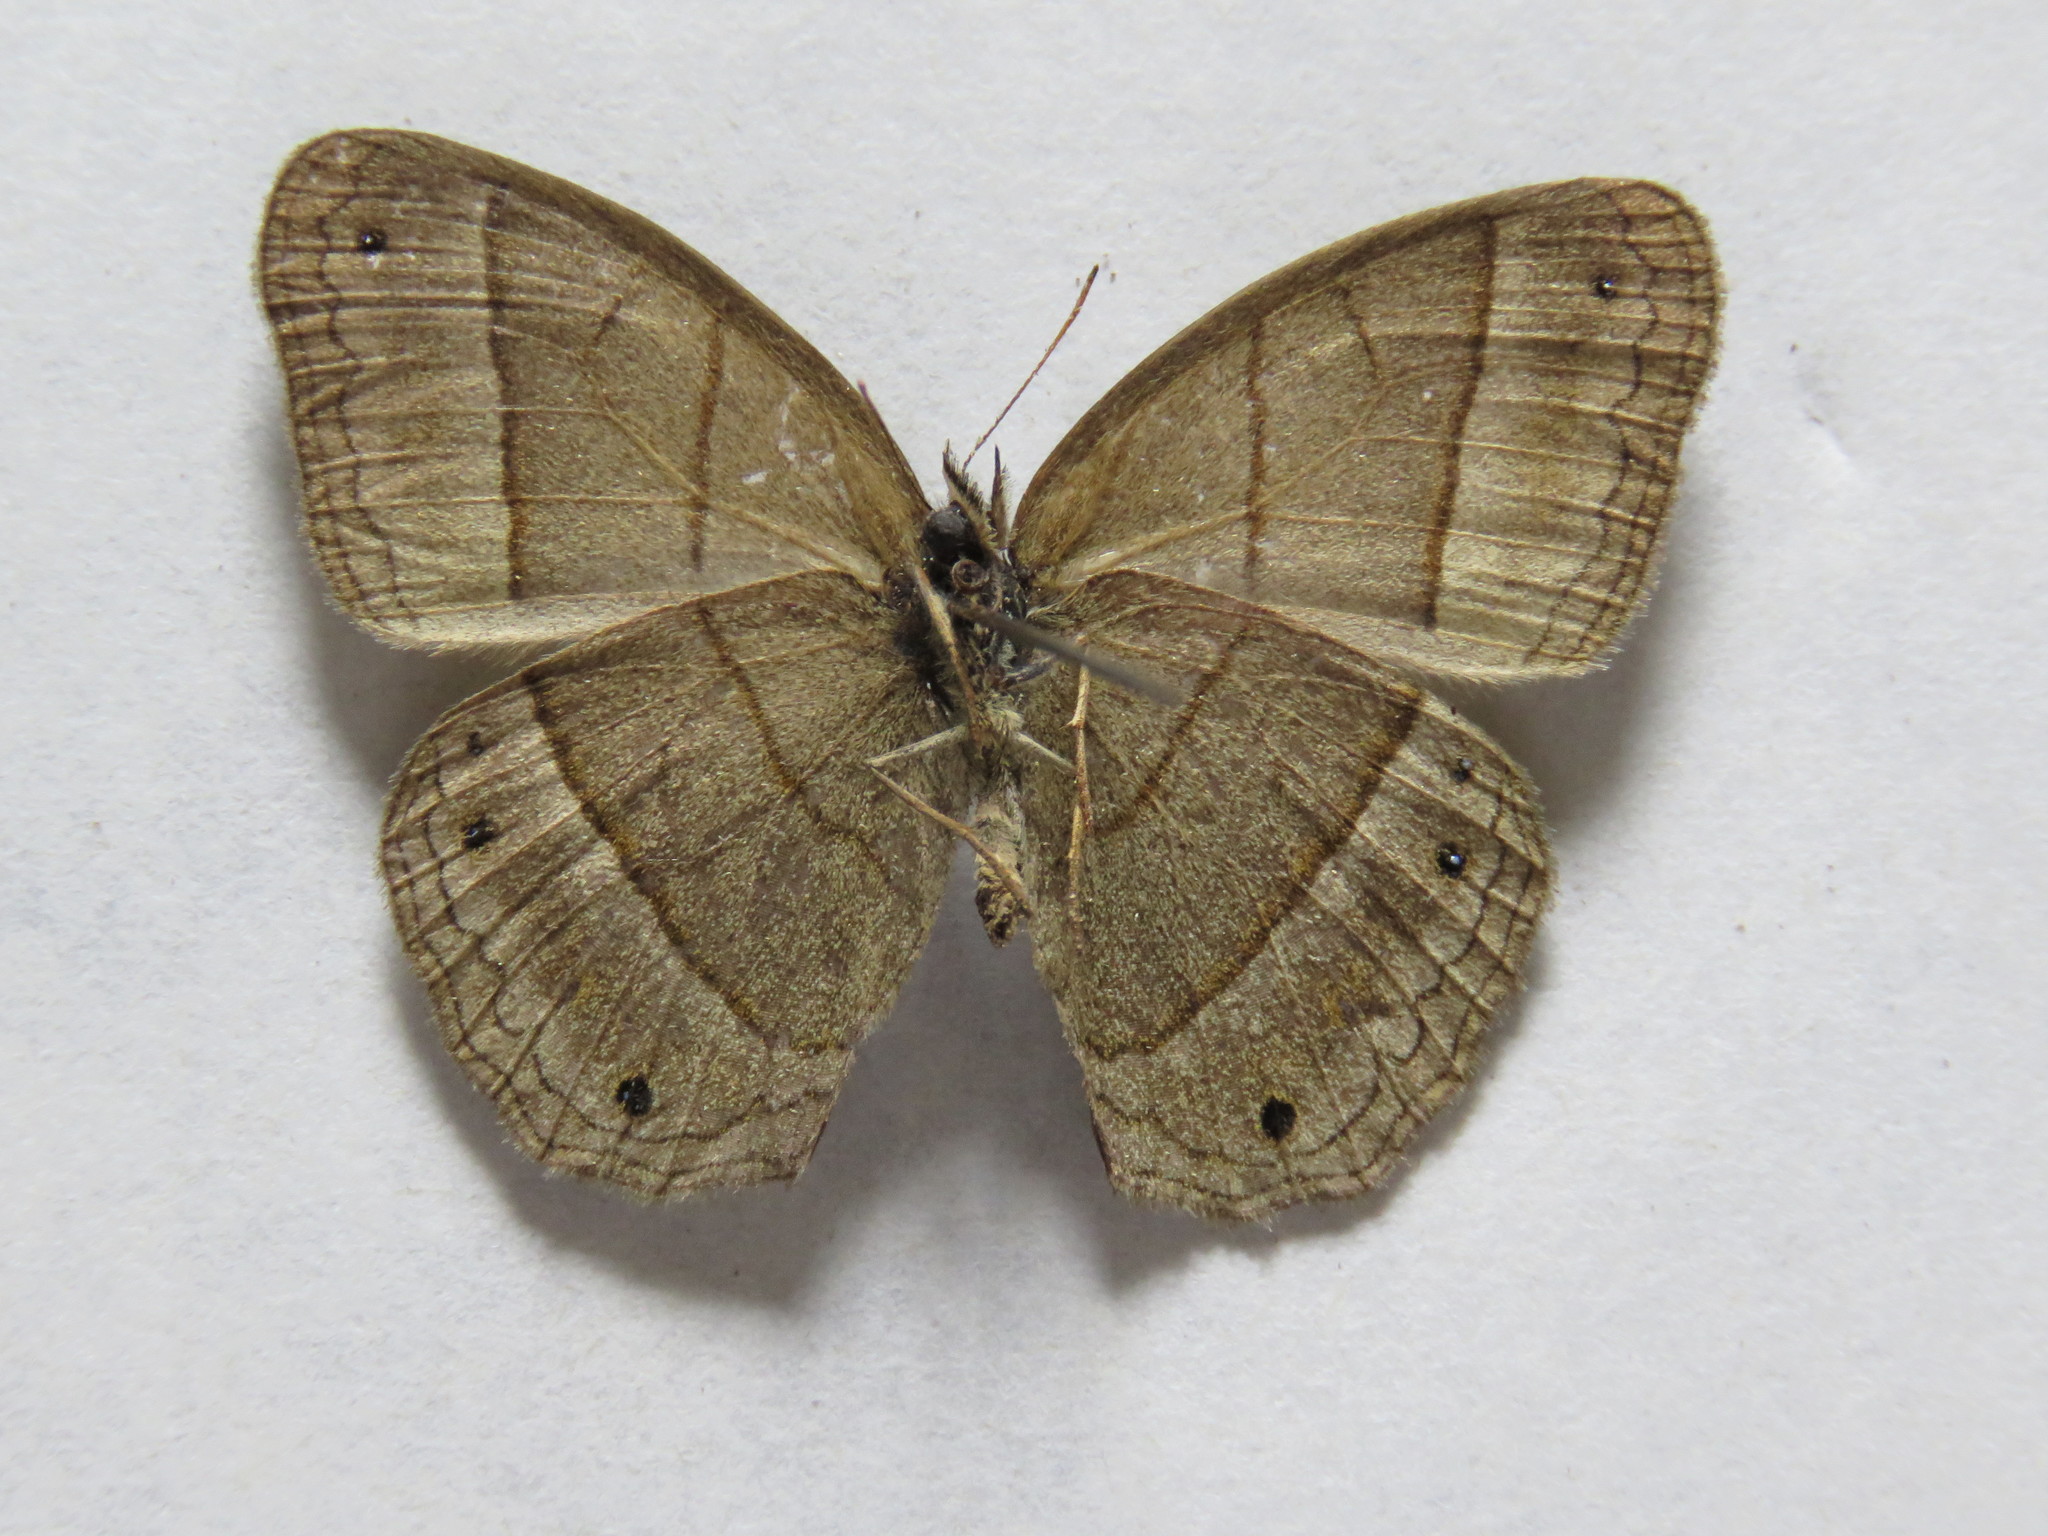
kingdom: Animalia
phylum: Arthropoda
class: Insecta
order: Lepidoptera
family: Nymphalidae
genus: Euptychia
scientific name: Euptychia Cissia pompilia
